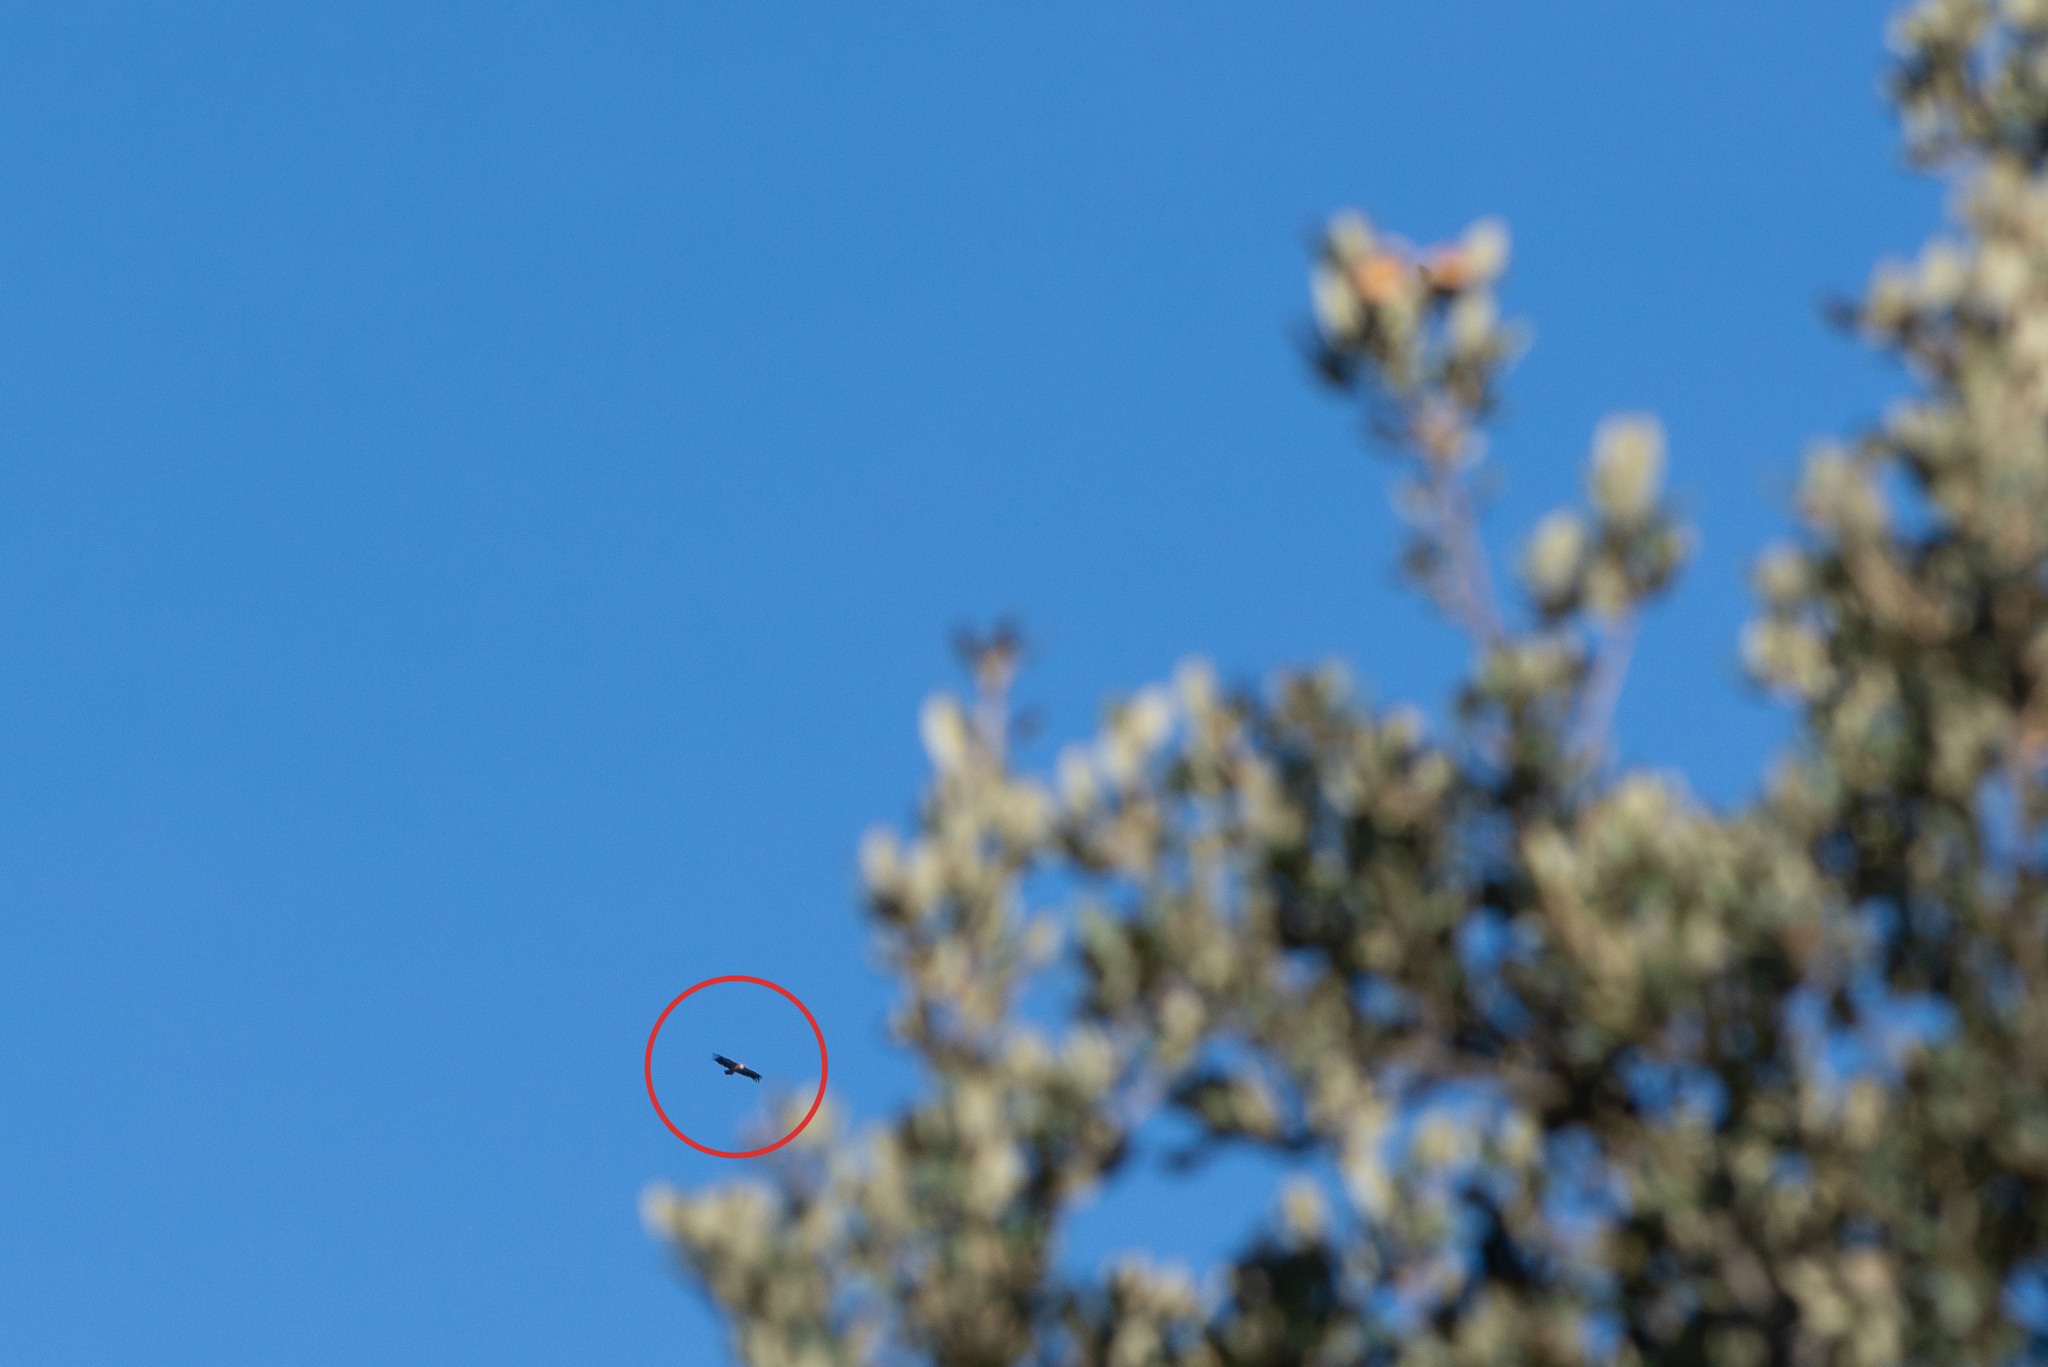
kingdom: Animalia
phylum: Chordata
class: Aves
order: Accipitriformes
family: Accipitridae
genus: Gyps
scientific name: Gyps fulvus
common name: Griffon vulture
